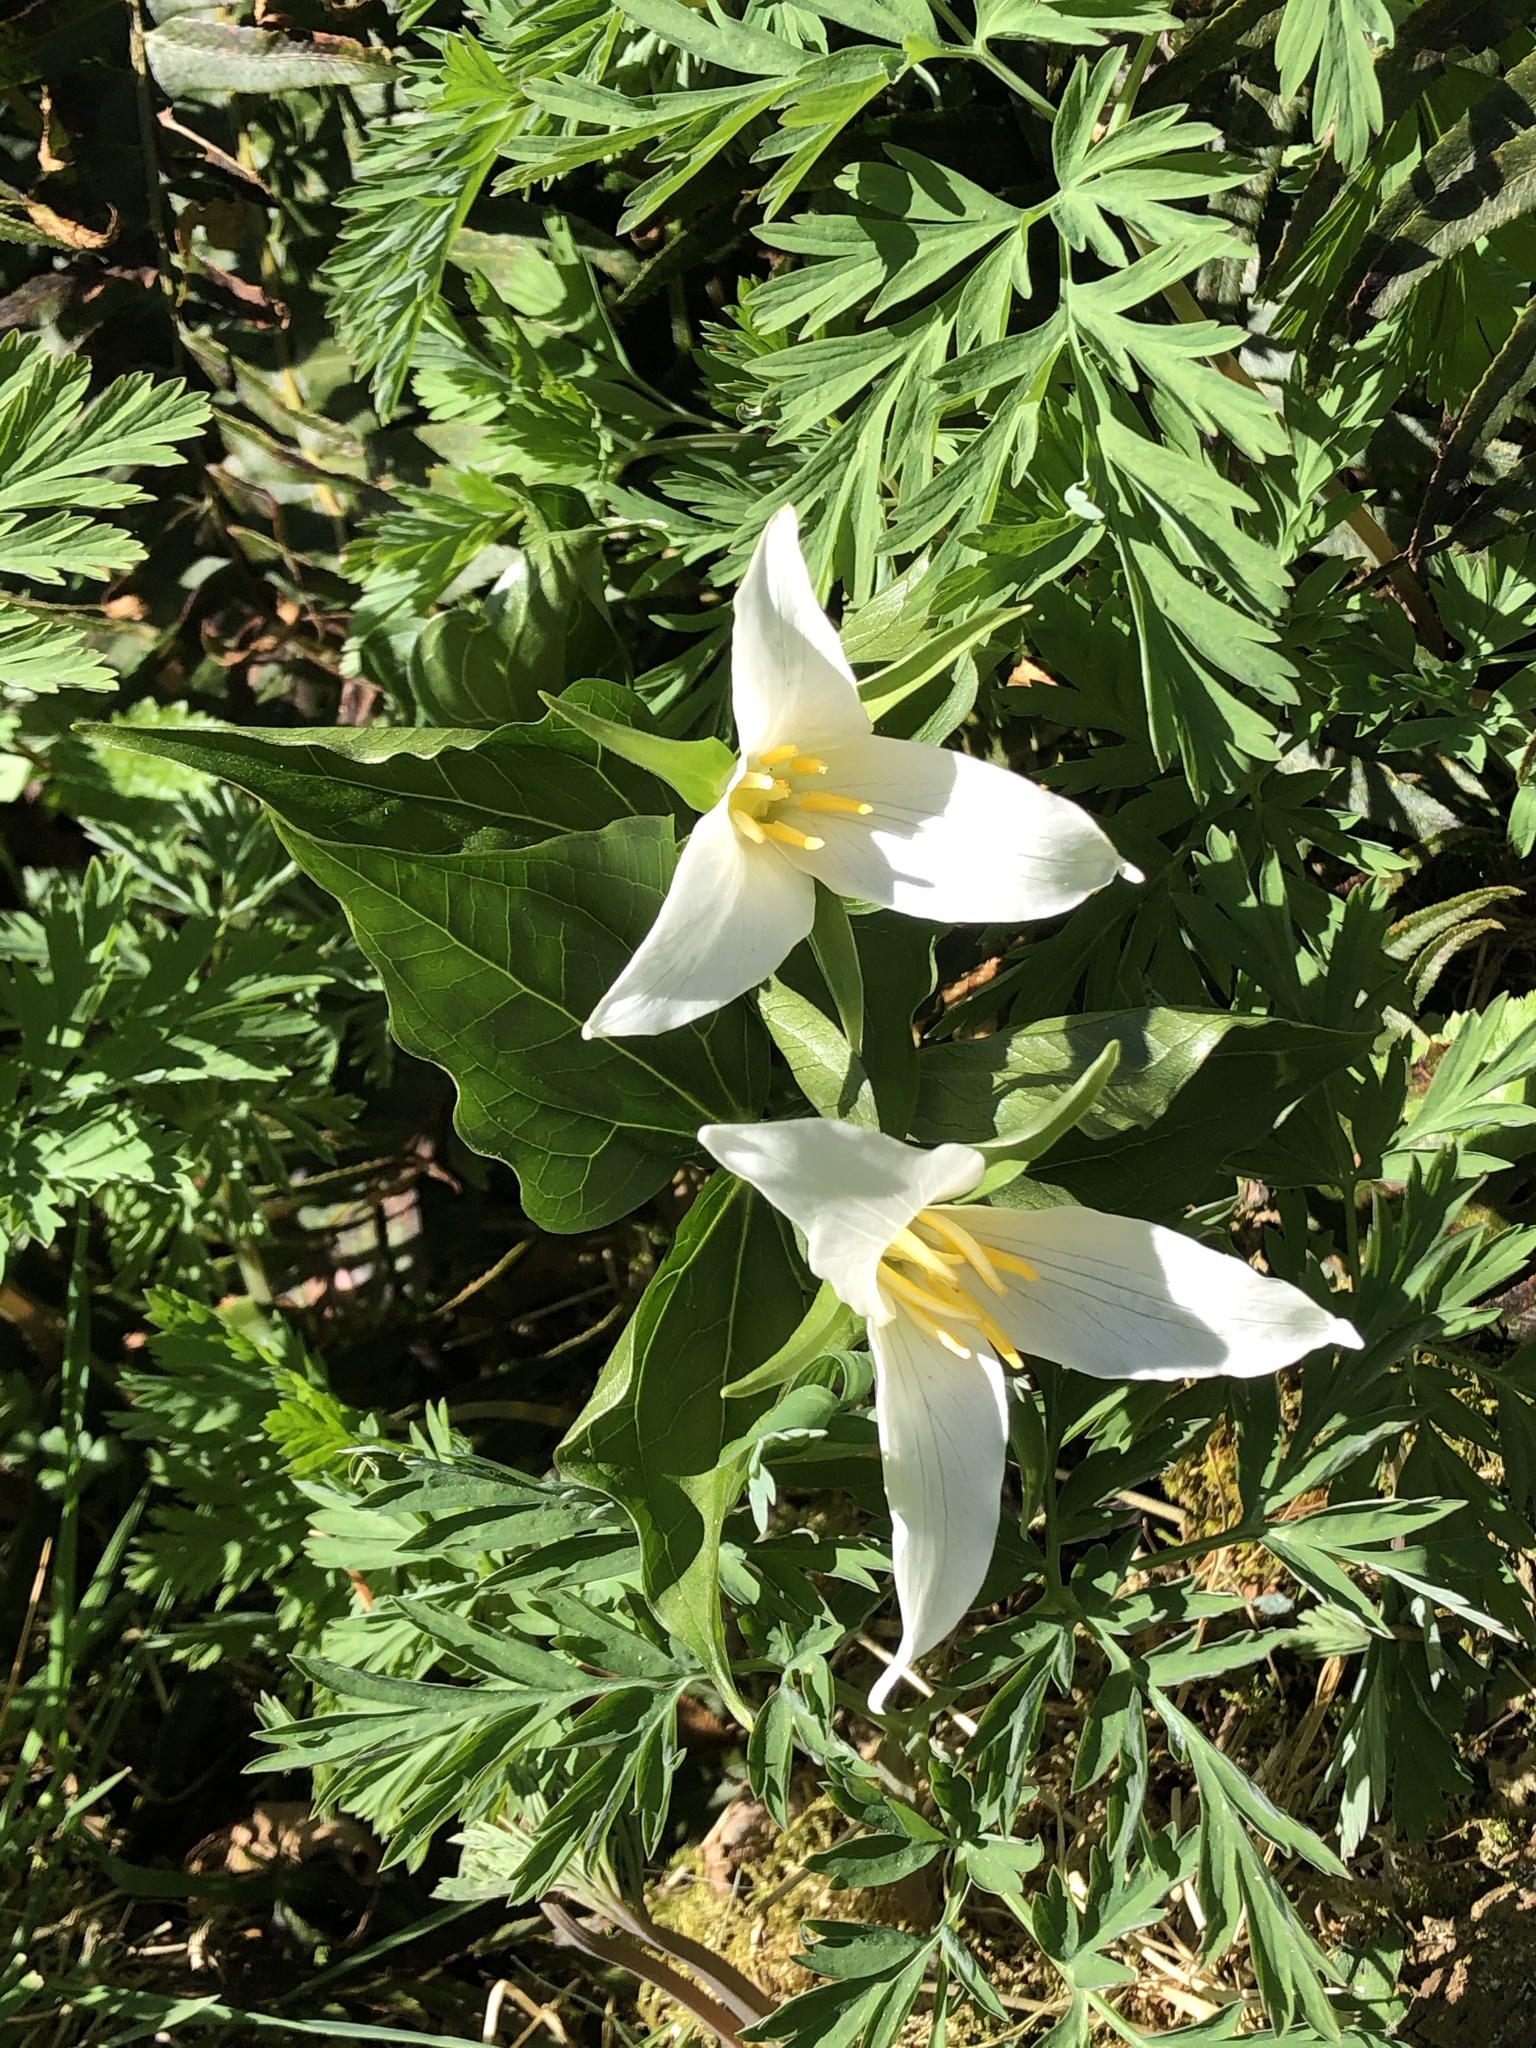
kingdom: Plantae
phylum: Tracheophyta
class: Liliopsida
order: Liliales
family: Melanthiaceae
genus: Trillium
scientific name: Trillium ovatum
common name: Pacific trillium
